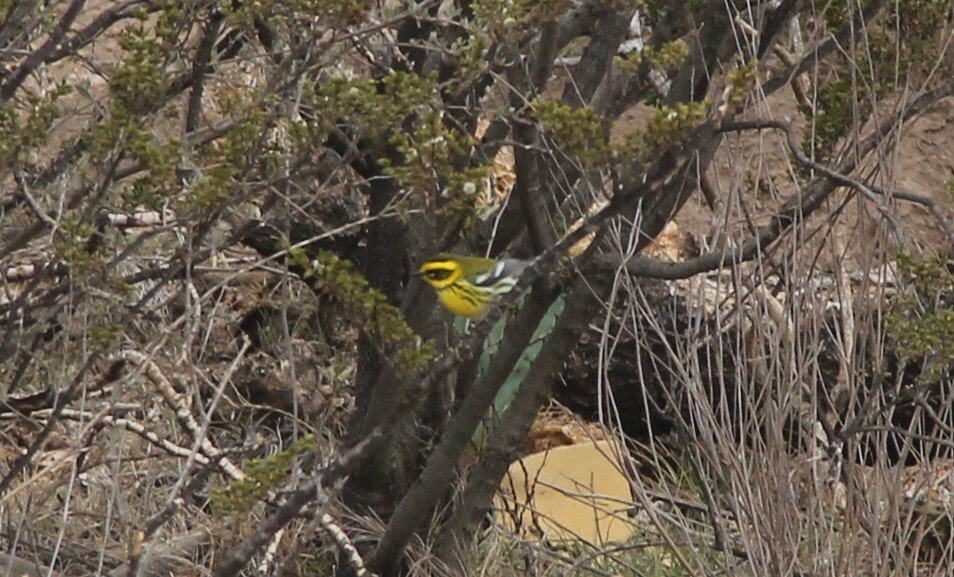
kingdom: Animalia
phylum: Chordata
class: Aves
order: Passeriformes
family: Parulidae
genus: Setophaga
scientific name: Setophaga townsendi
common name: Townsend's warbler
